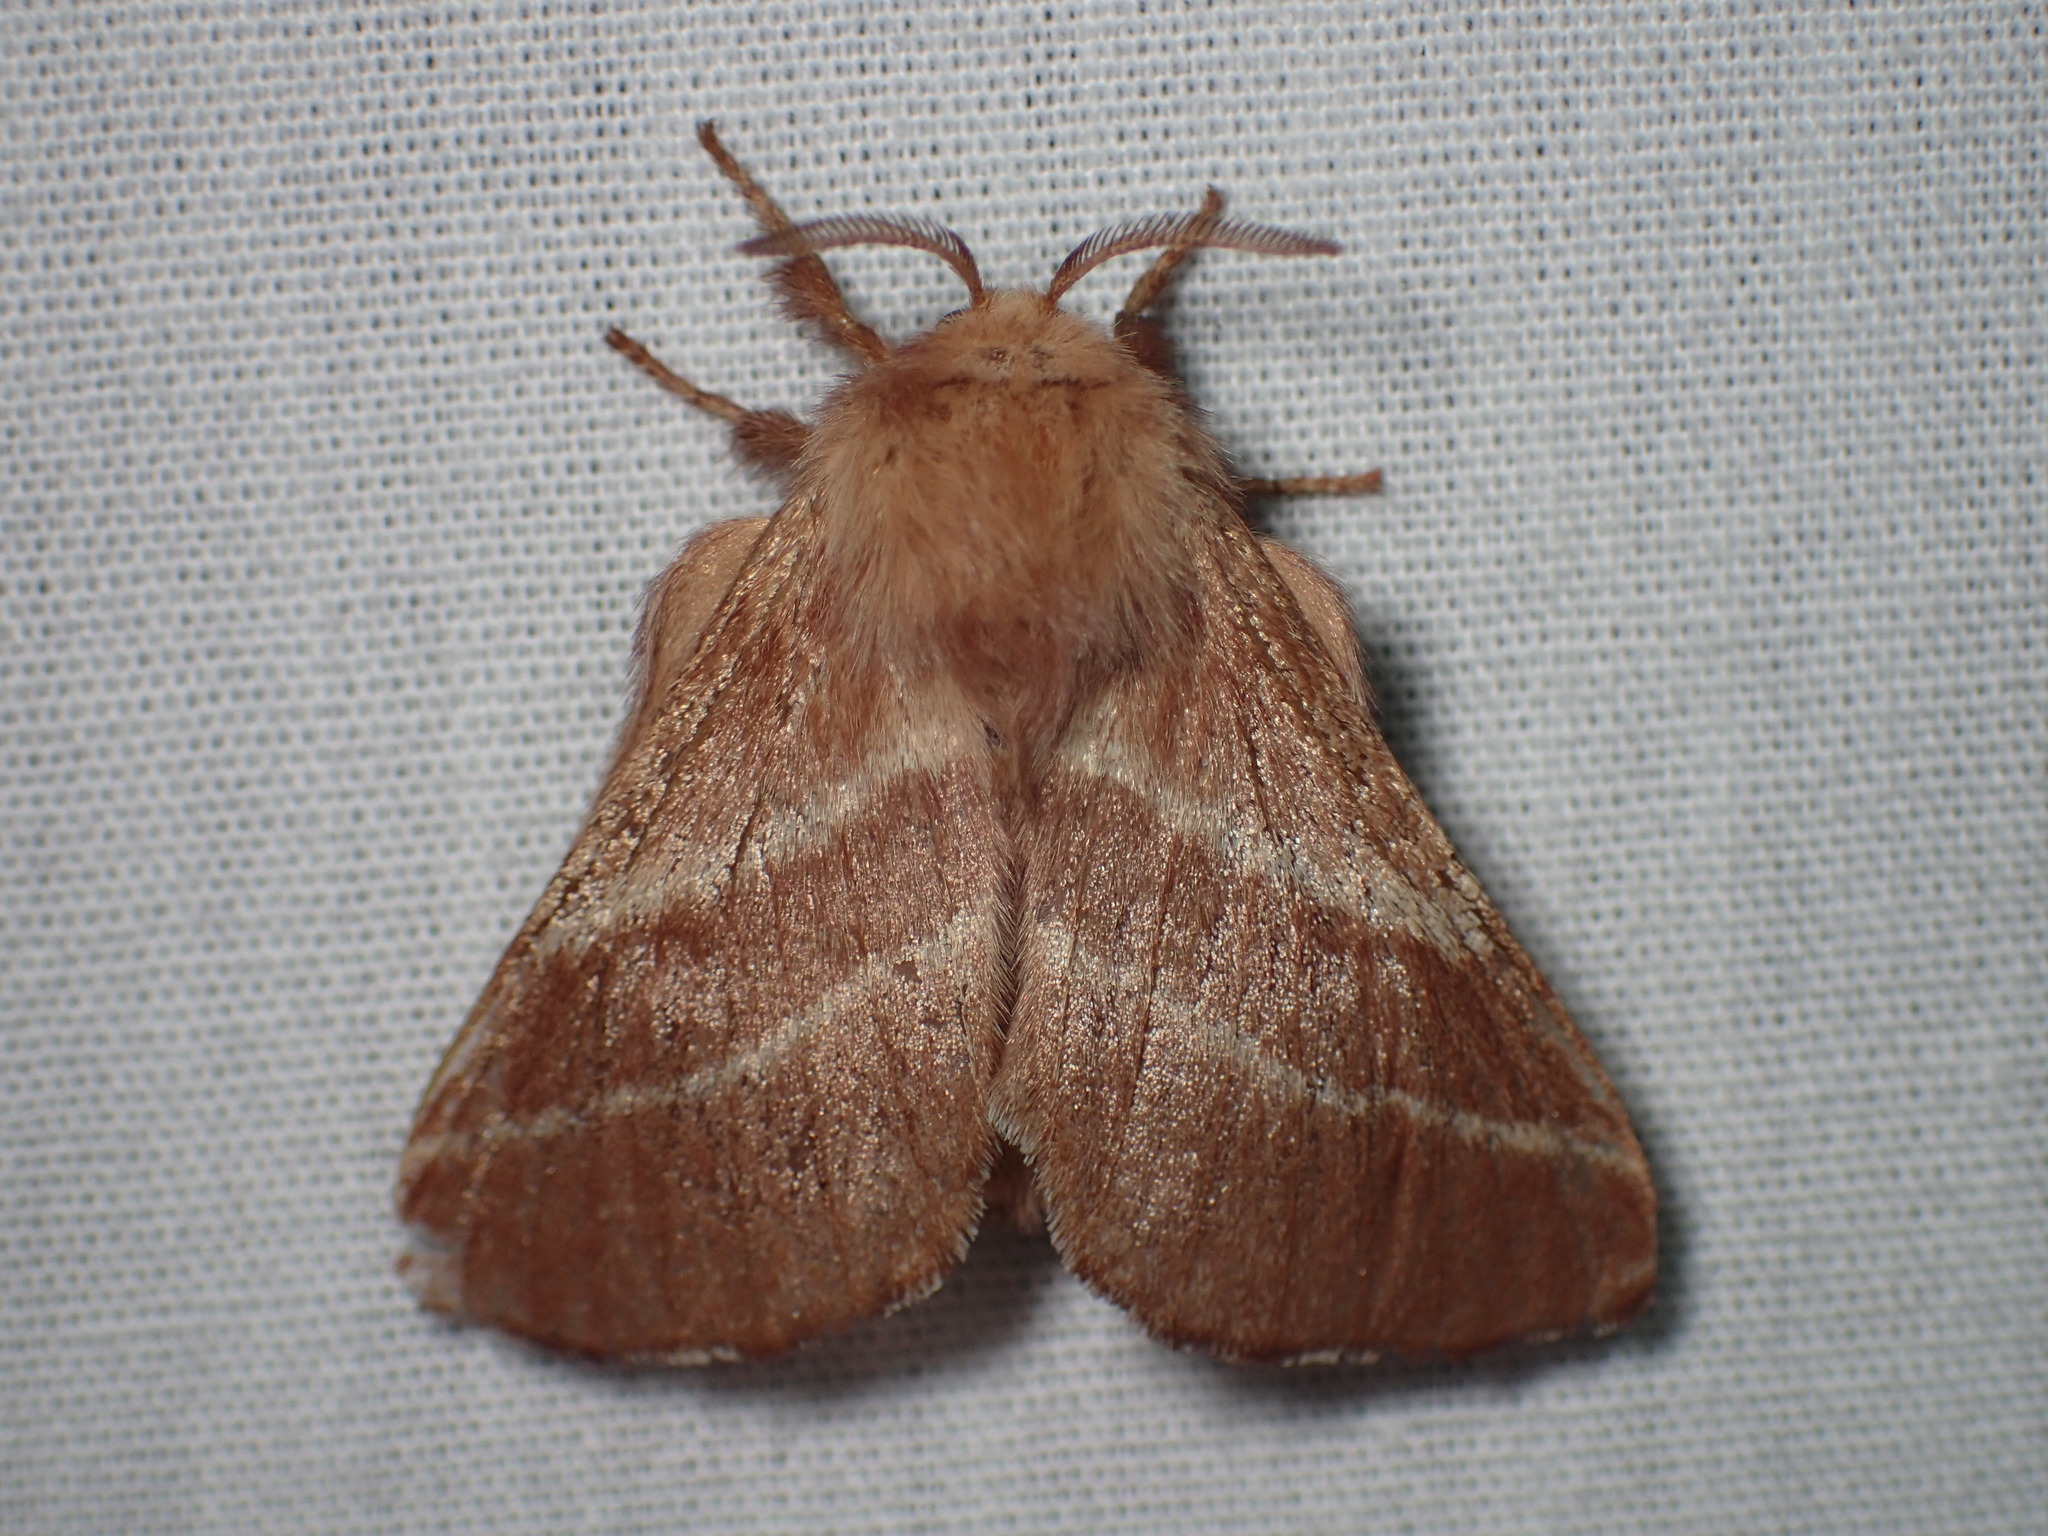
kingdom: Animalia
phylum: Arthropoda
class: Insecta
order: Lepidoptera
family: Lasiocampidae
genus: Malacosoma
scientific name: Malacosoma americana
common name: Eastern tent caterpillar moth
